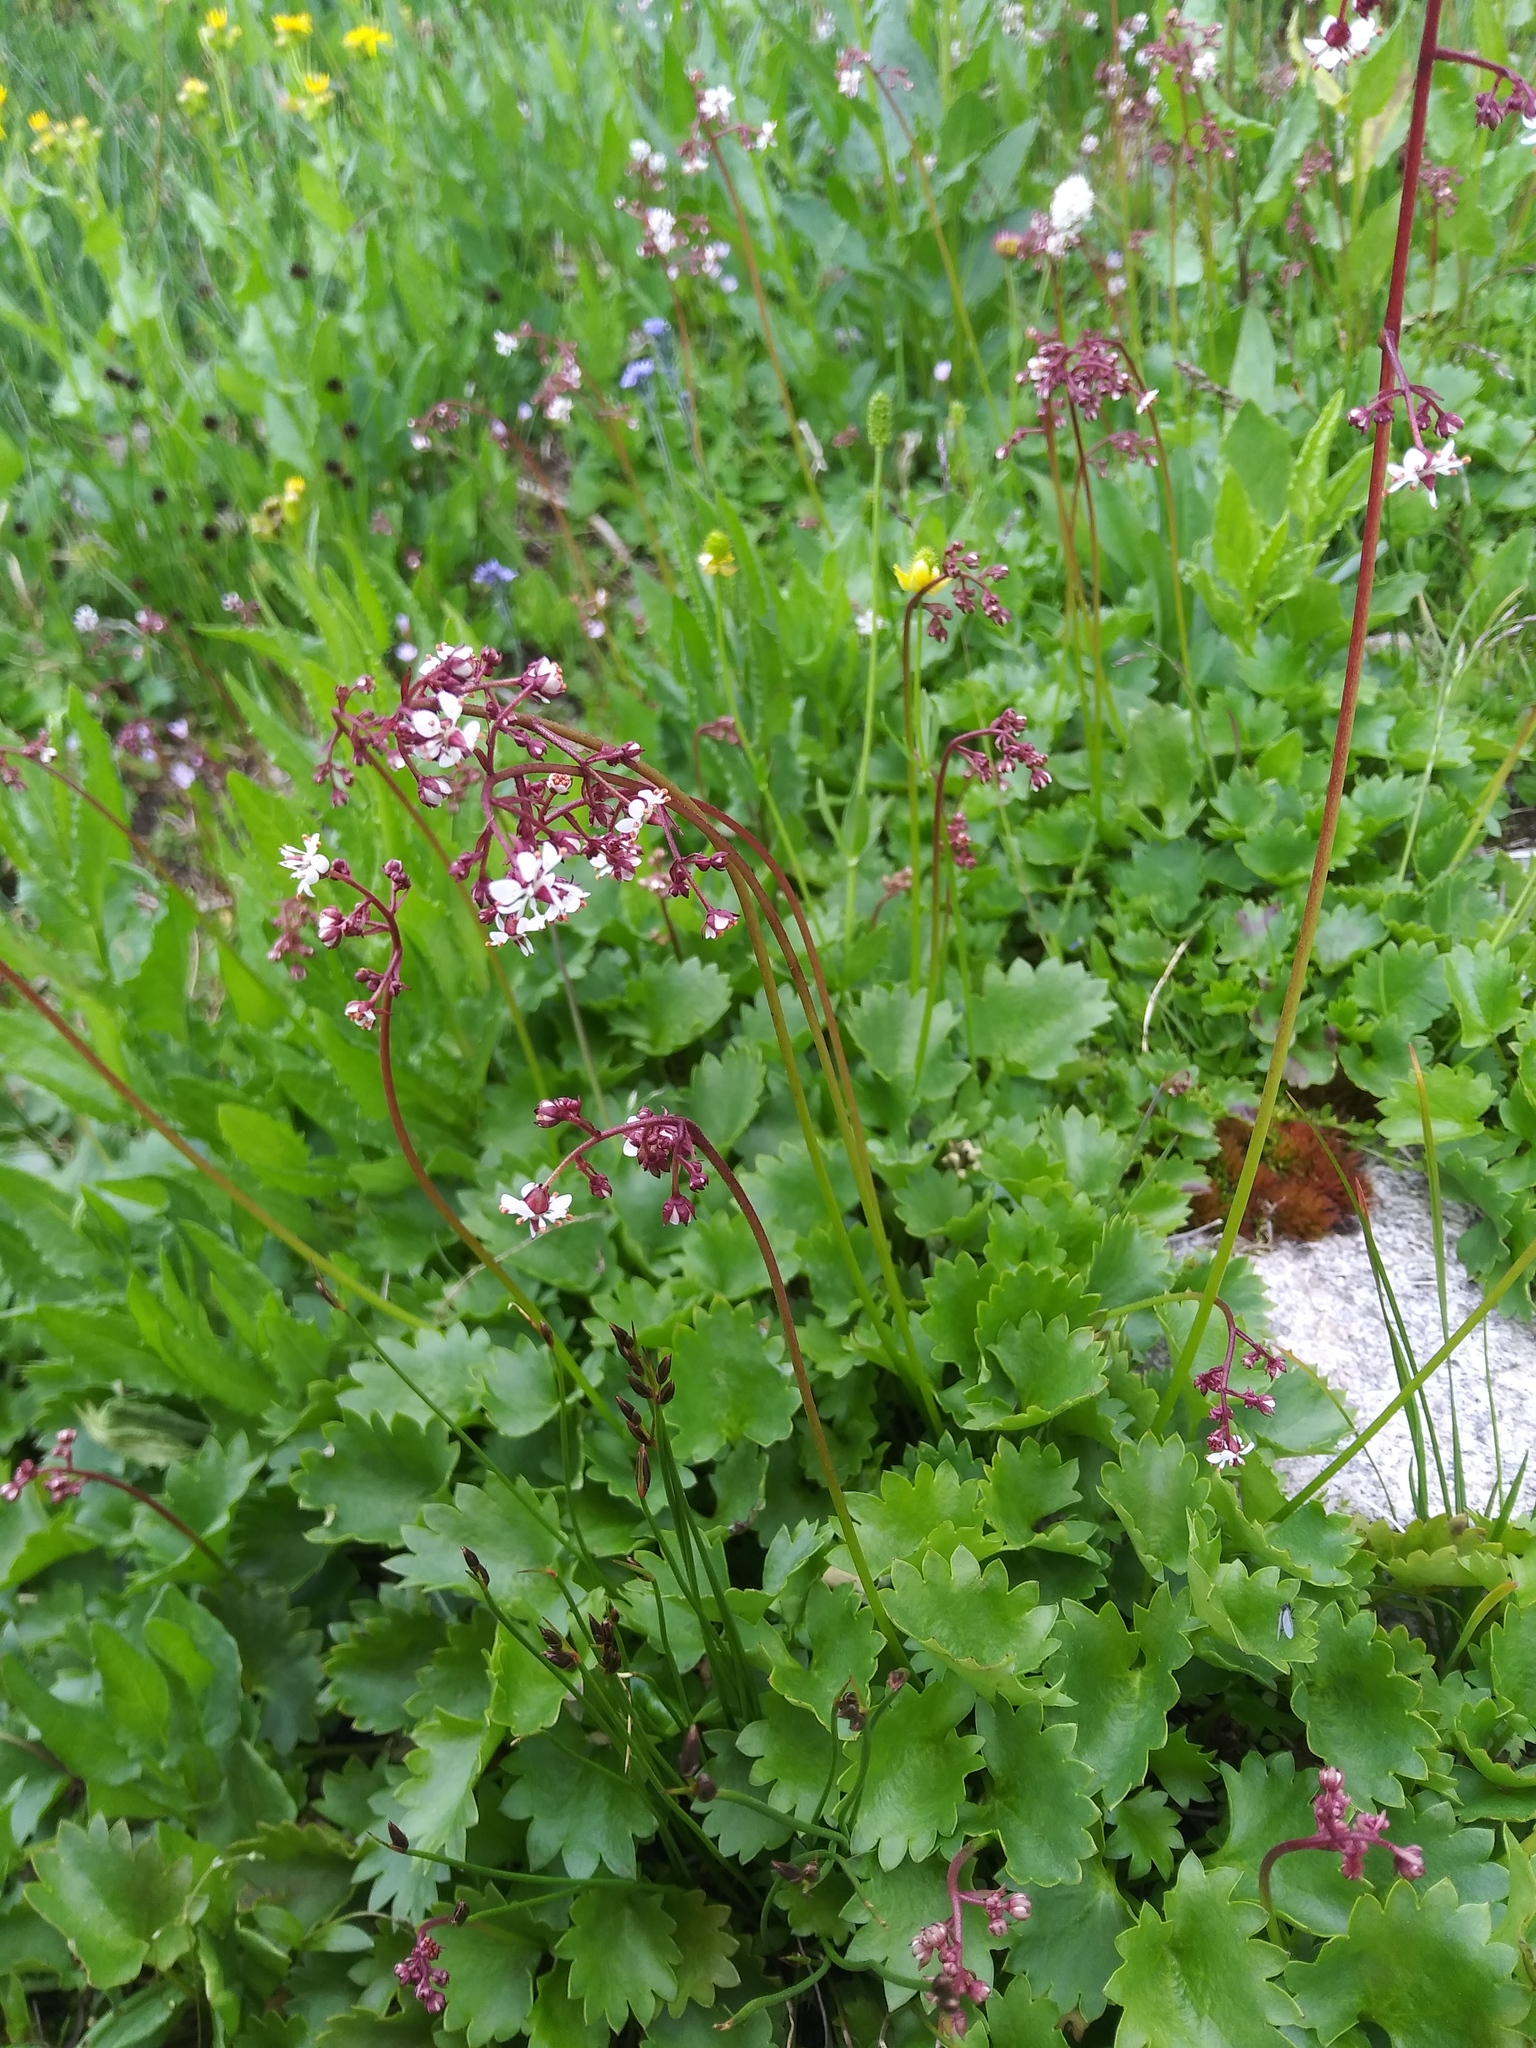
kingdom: Plantae
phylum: Tracheophyta
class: Magnoliopsida
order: Saxifragales
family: Saxifragaceae
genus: Micranthes
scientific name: Micranthes odontoloma
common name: Brook saxifrage
